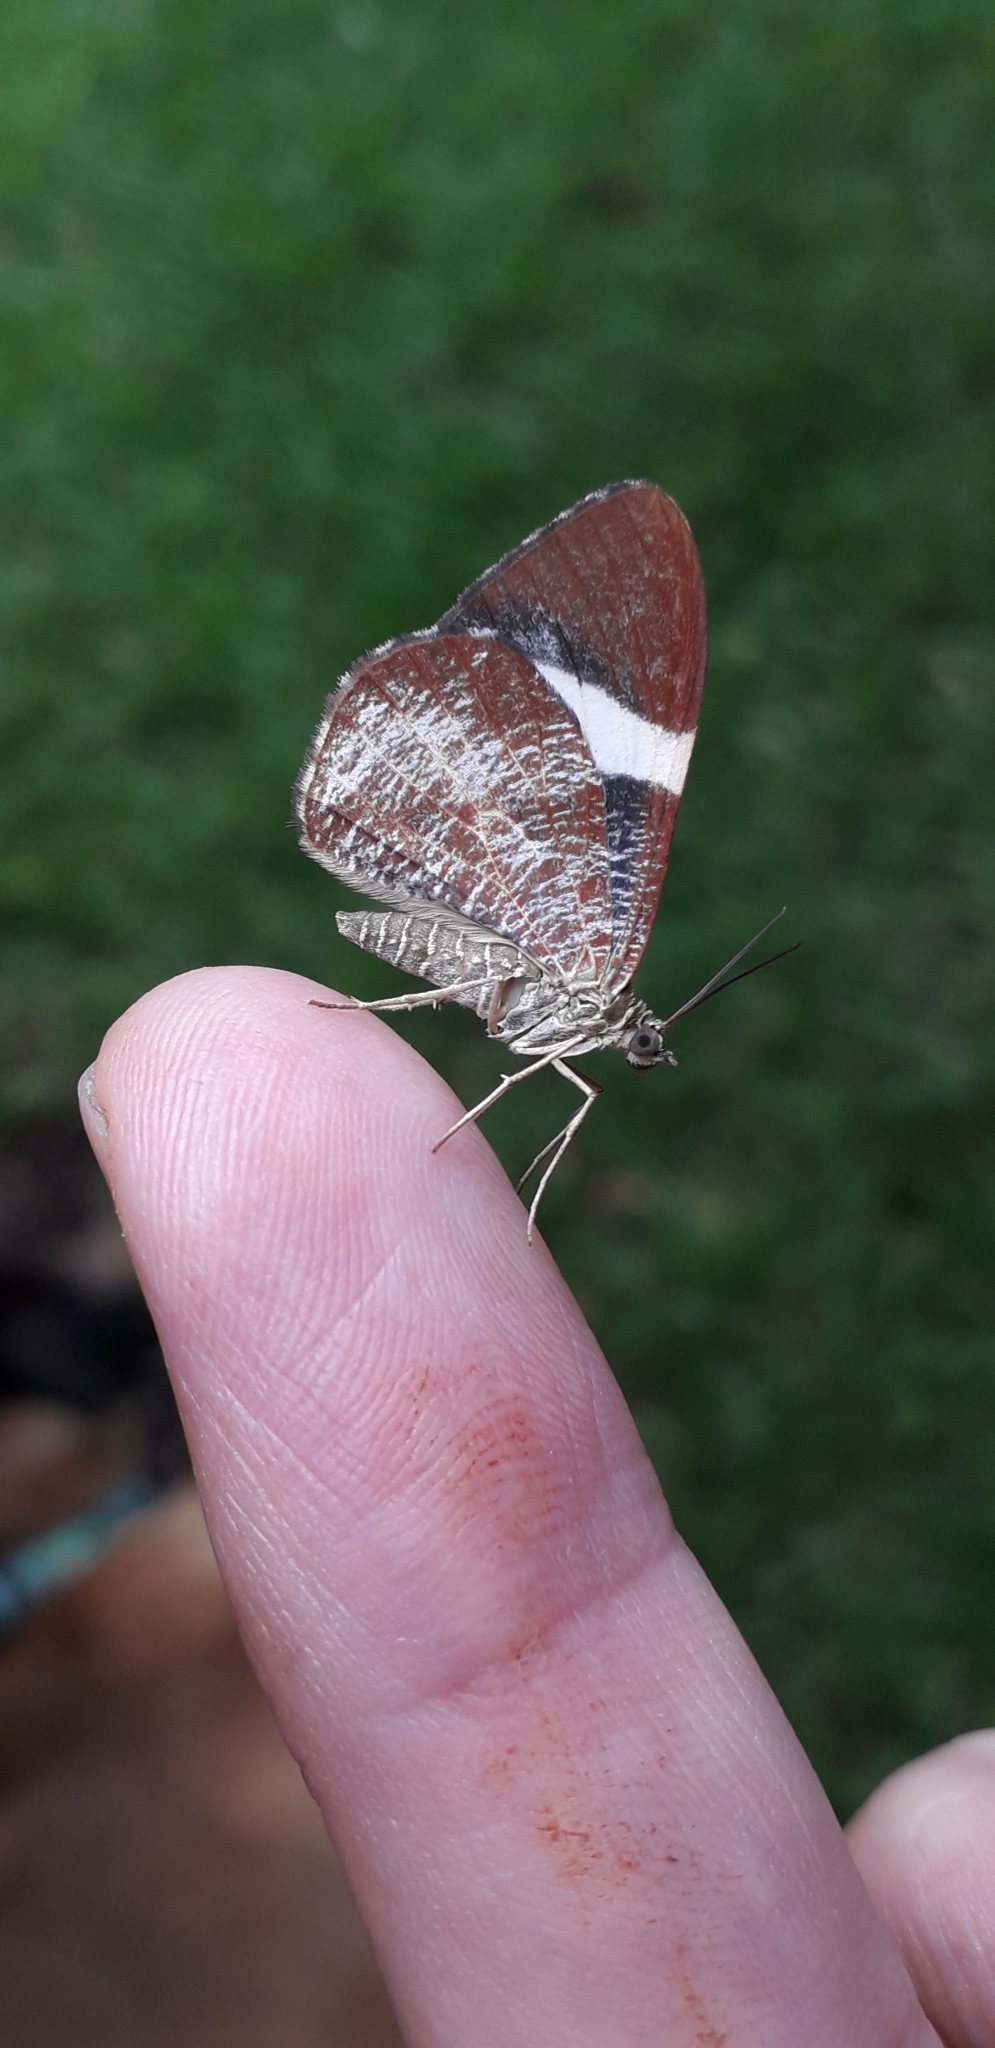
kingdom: Animalia
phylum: Arthropoda
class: Insecta
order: Lepidoptera
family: Geometridae
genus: Hagnagora
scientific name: Hagnagora anicata
